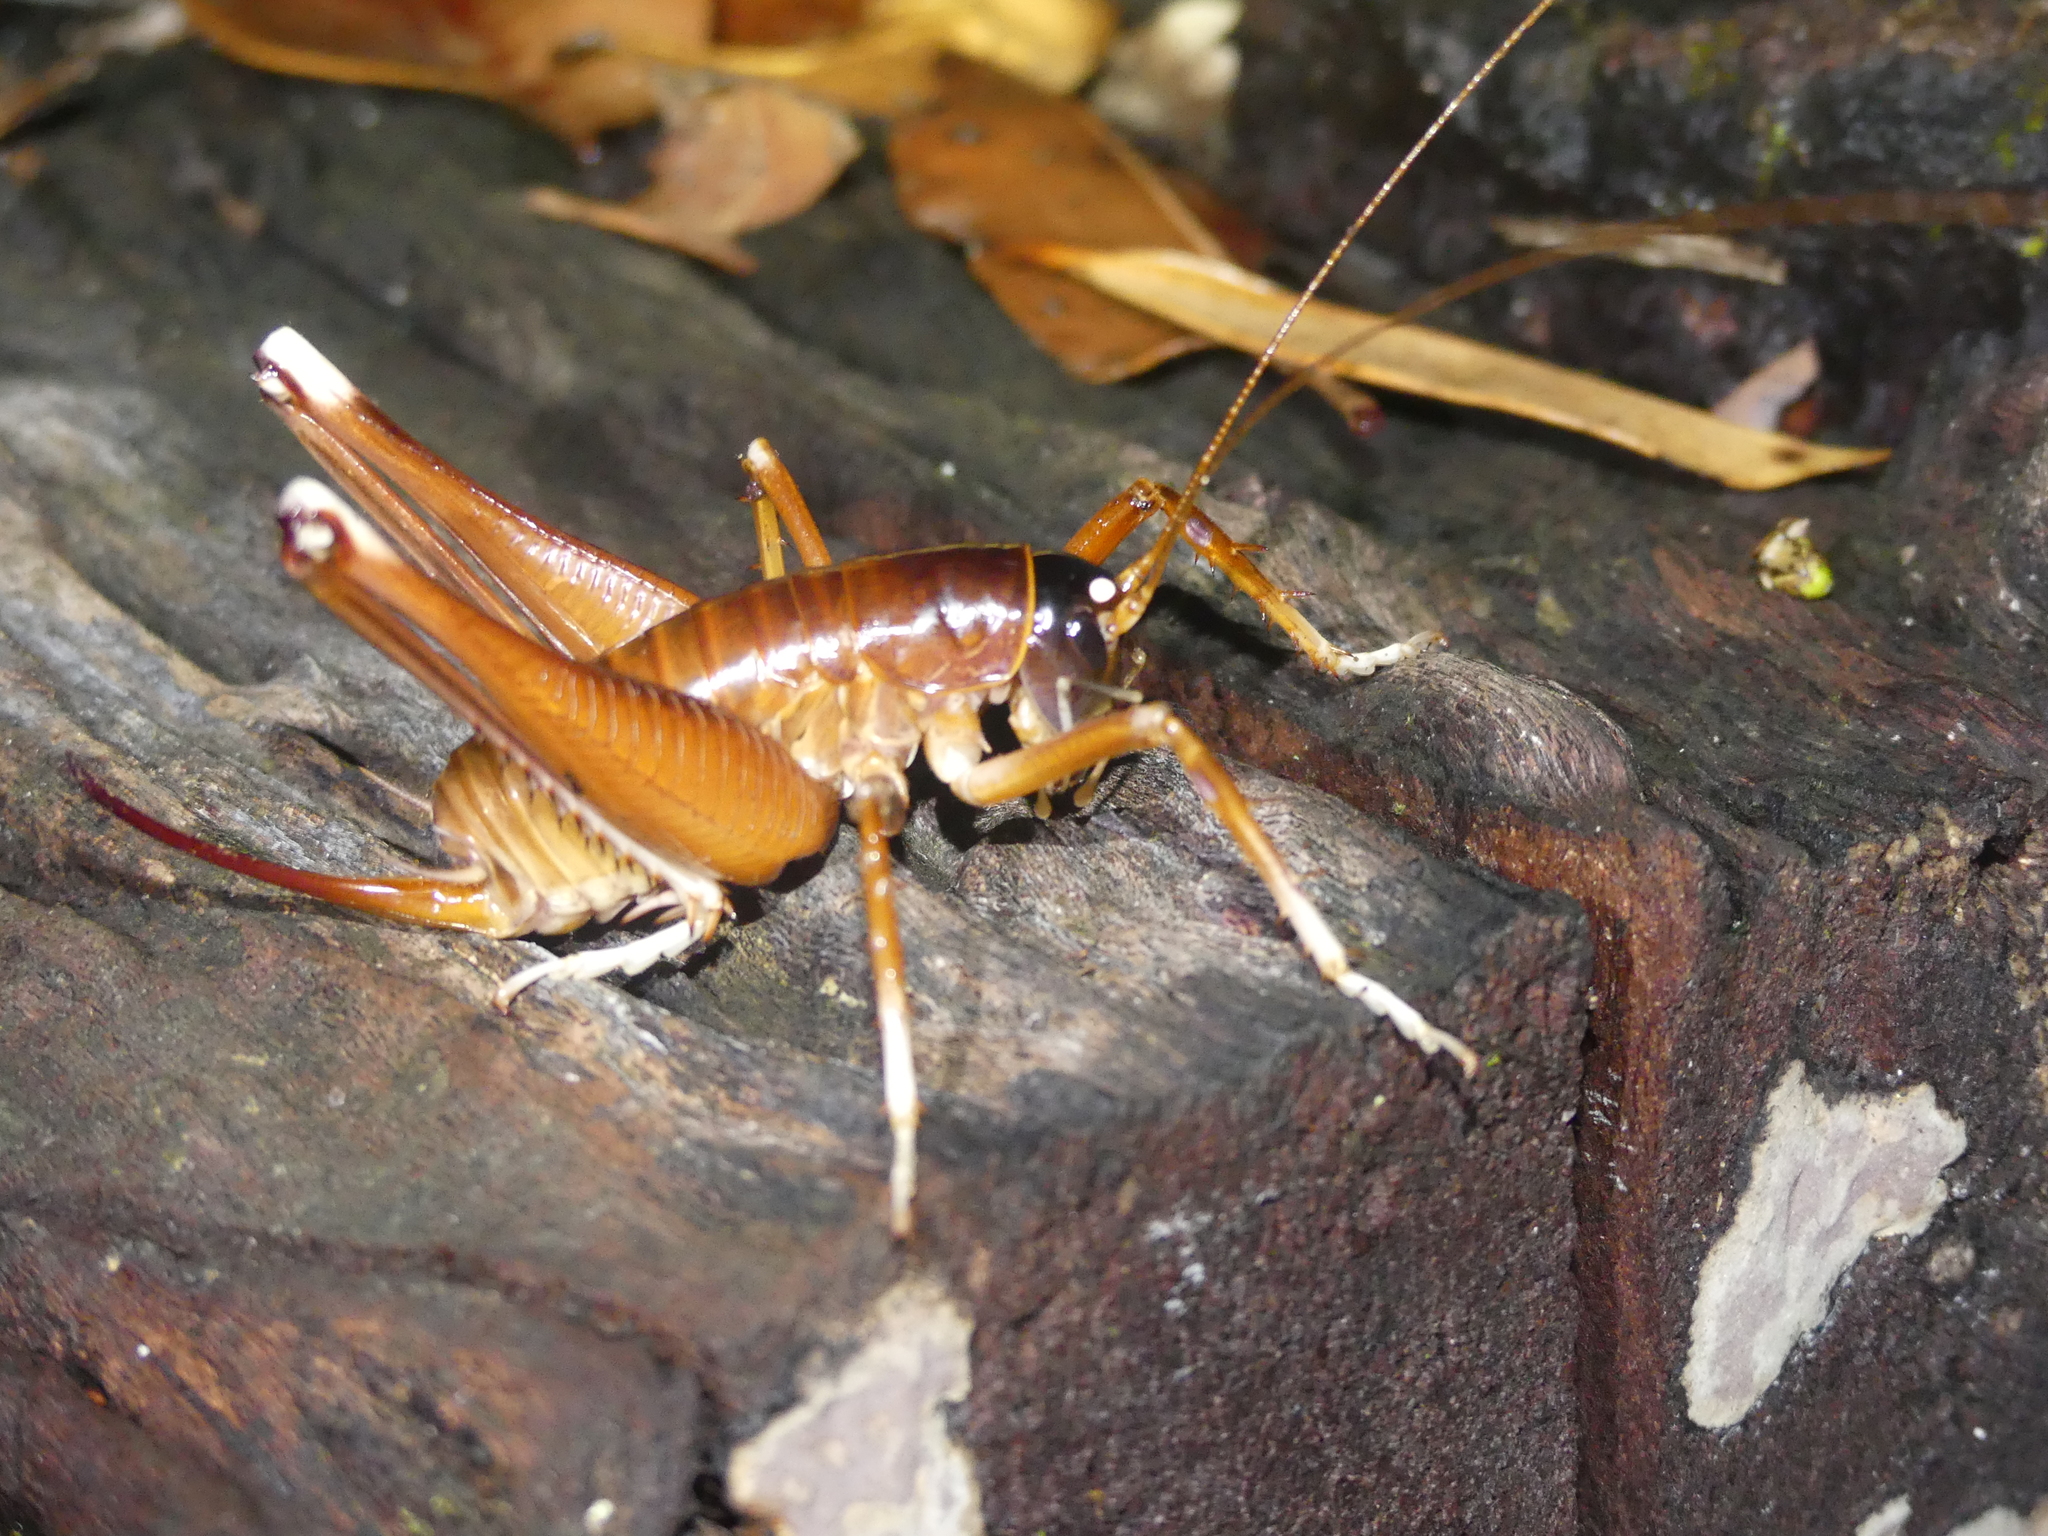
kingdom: Animalia
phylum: Arthropoda
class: Insecta
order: Orthoptera
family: Anostostomatidae
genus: Penalva
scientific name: Penalva flavocalceata
